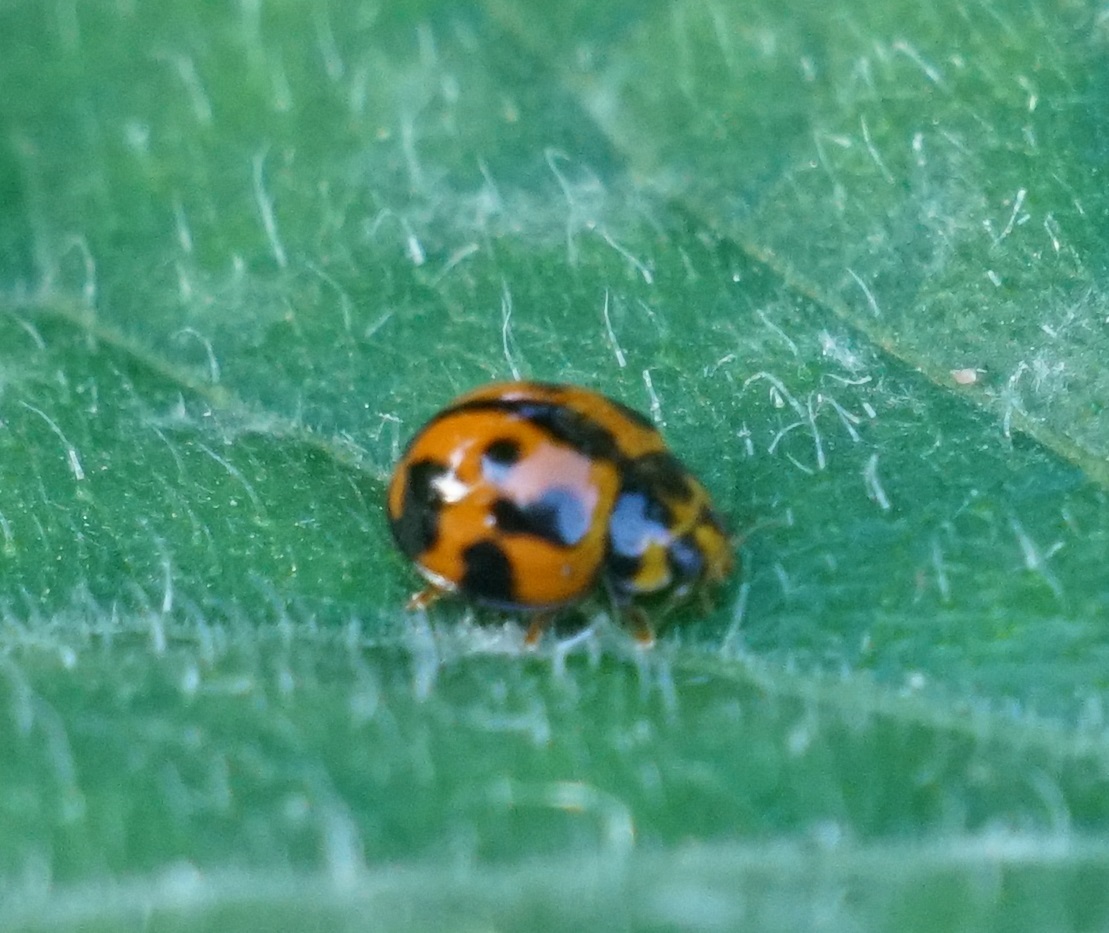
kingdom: Animalia
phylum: Arthropoda
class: Insecta
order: Coleoptera
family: Coccinellidae
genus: Coelophora
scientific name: Coelophora inaequalis
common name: Common australian lady beetle
